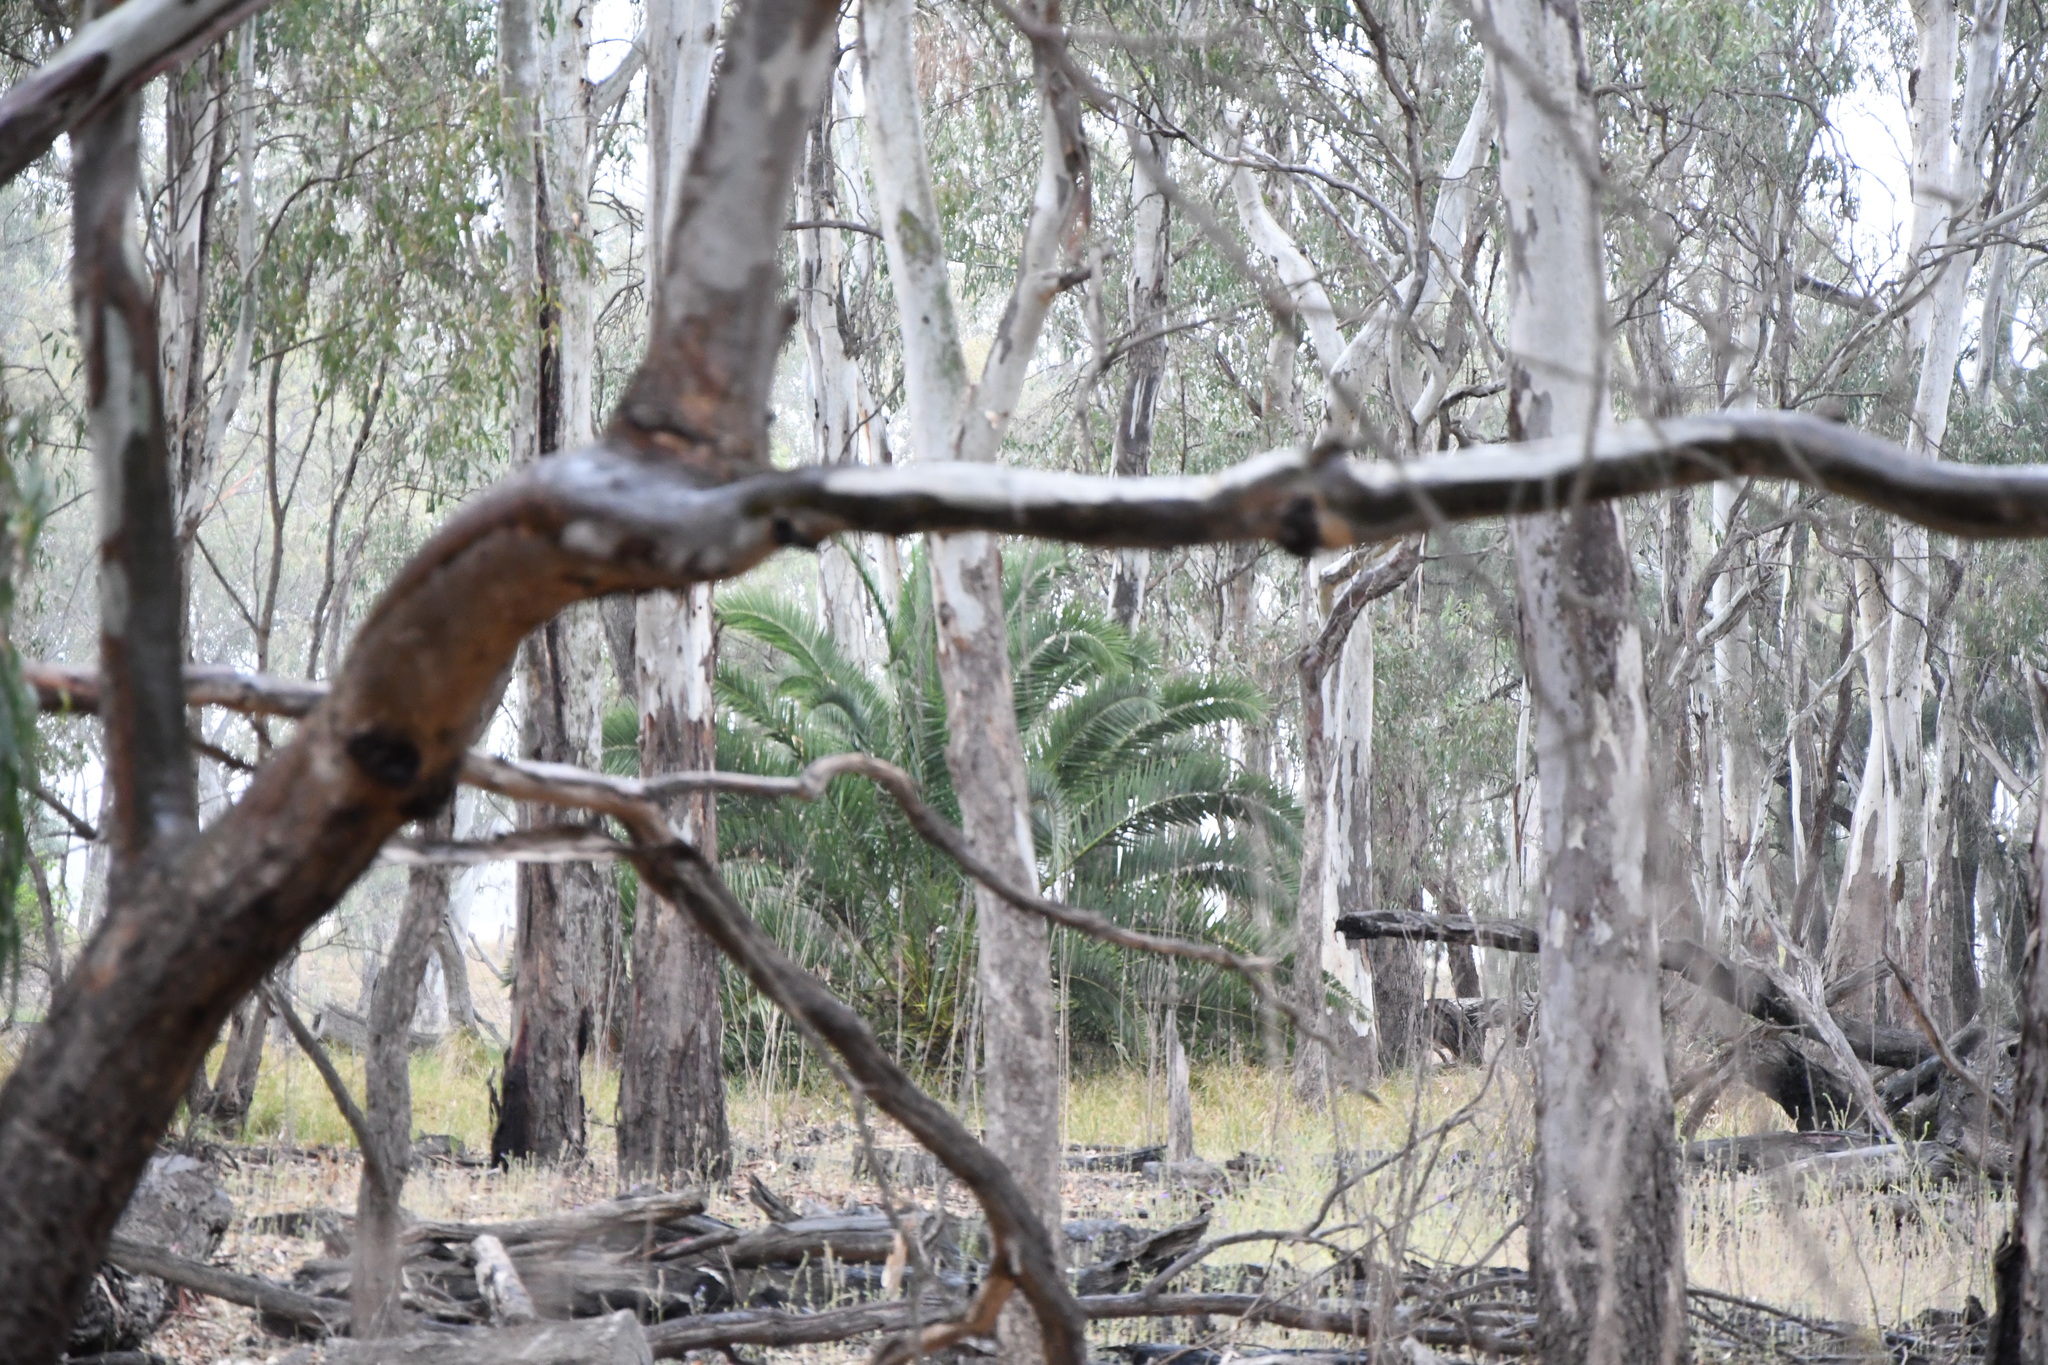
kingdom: Plantae
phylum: Tracheophyta
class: Liliopsida
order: Arecales
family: Arecaceae
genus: Phoenix
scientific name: Phoenix canariensis
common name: Canary island date palm
